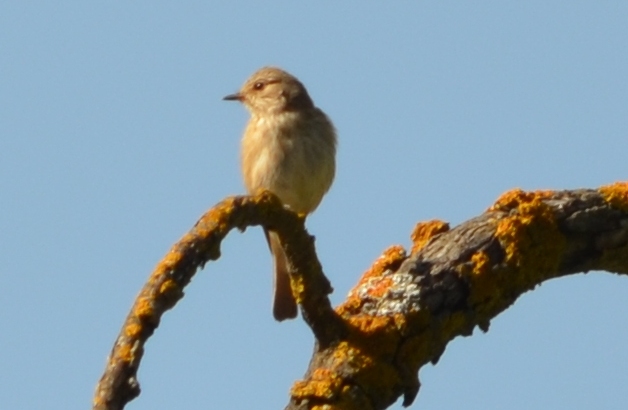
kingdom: Animalia
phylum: Chordata
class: Aves
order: Passeriformes
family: Muscicapidae
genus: Muscicapa
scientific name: Muscicapa striata
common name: Spotted flycatcher
